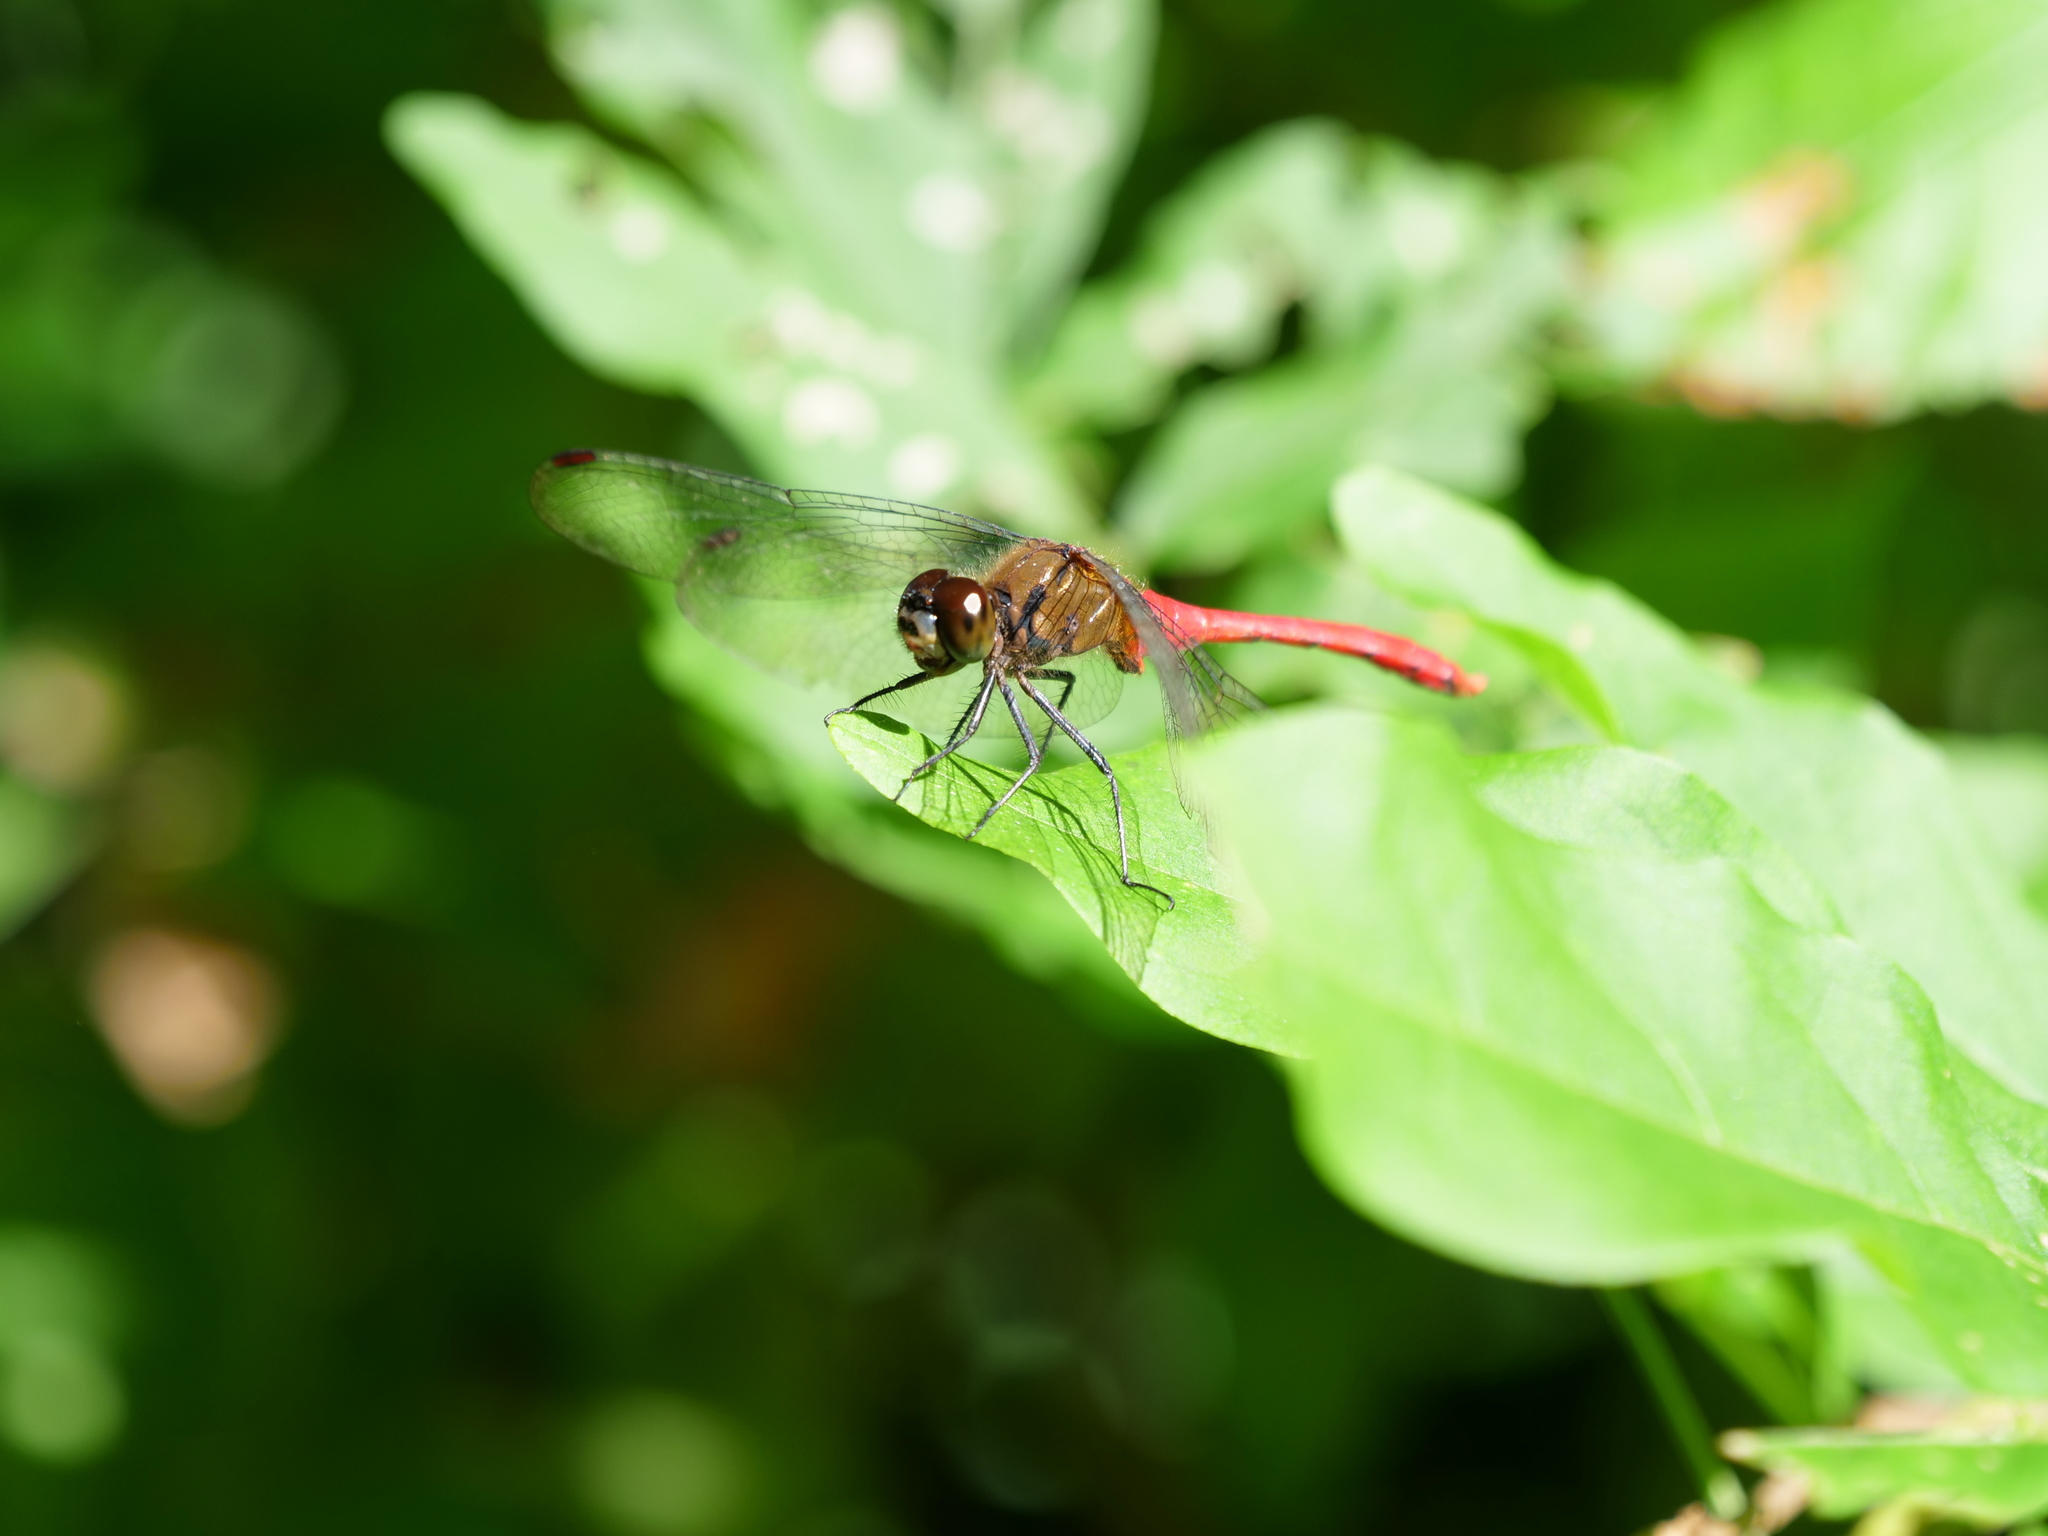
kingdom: Animalia
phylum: Arthropoda
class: Insecta
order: Odonata
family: Libellulidae
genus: Sympetrum
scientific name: Sympetrum eroticum
